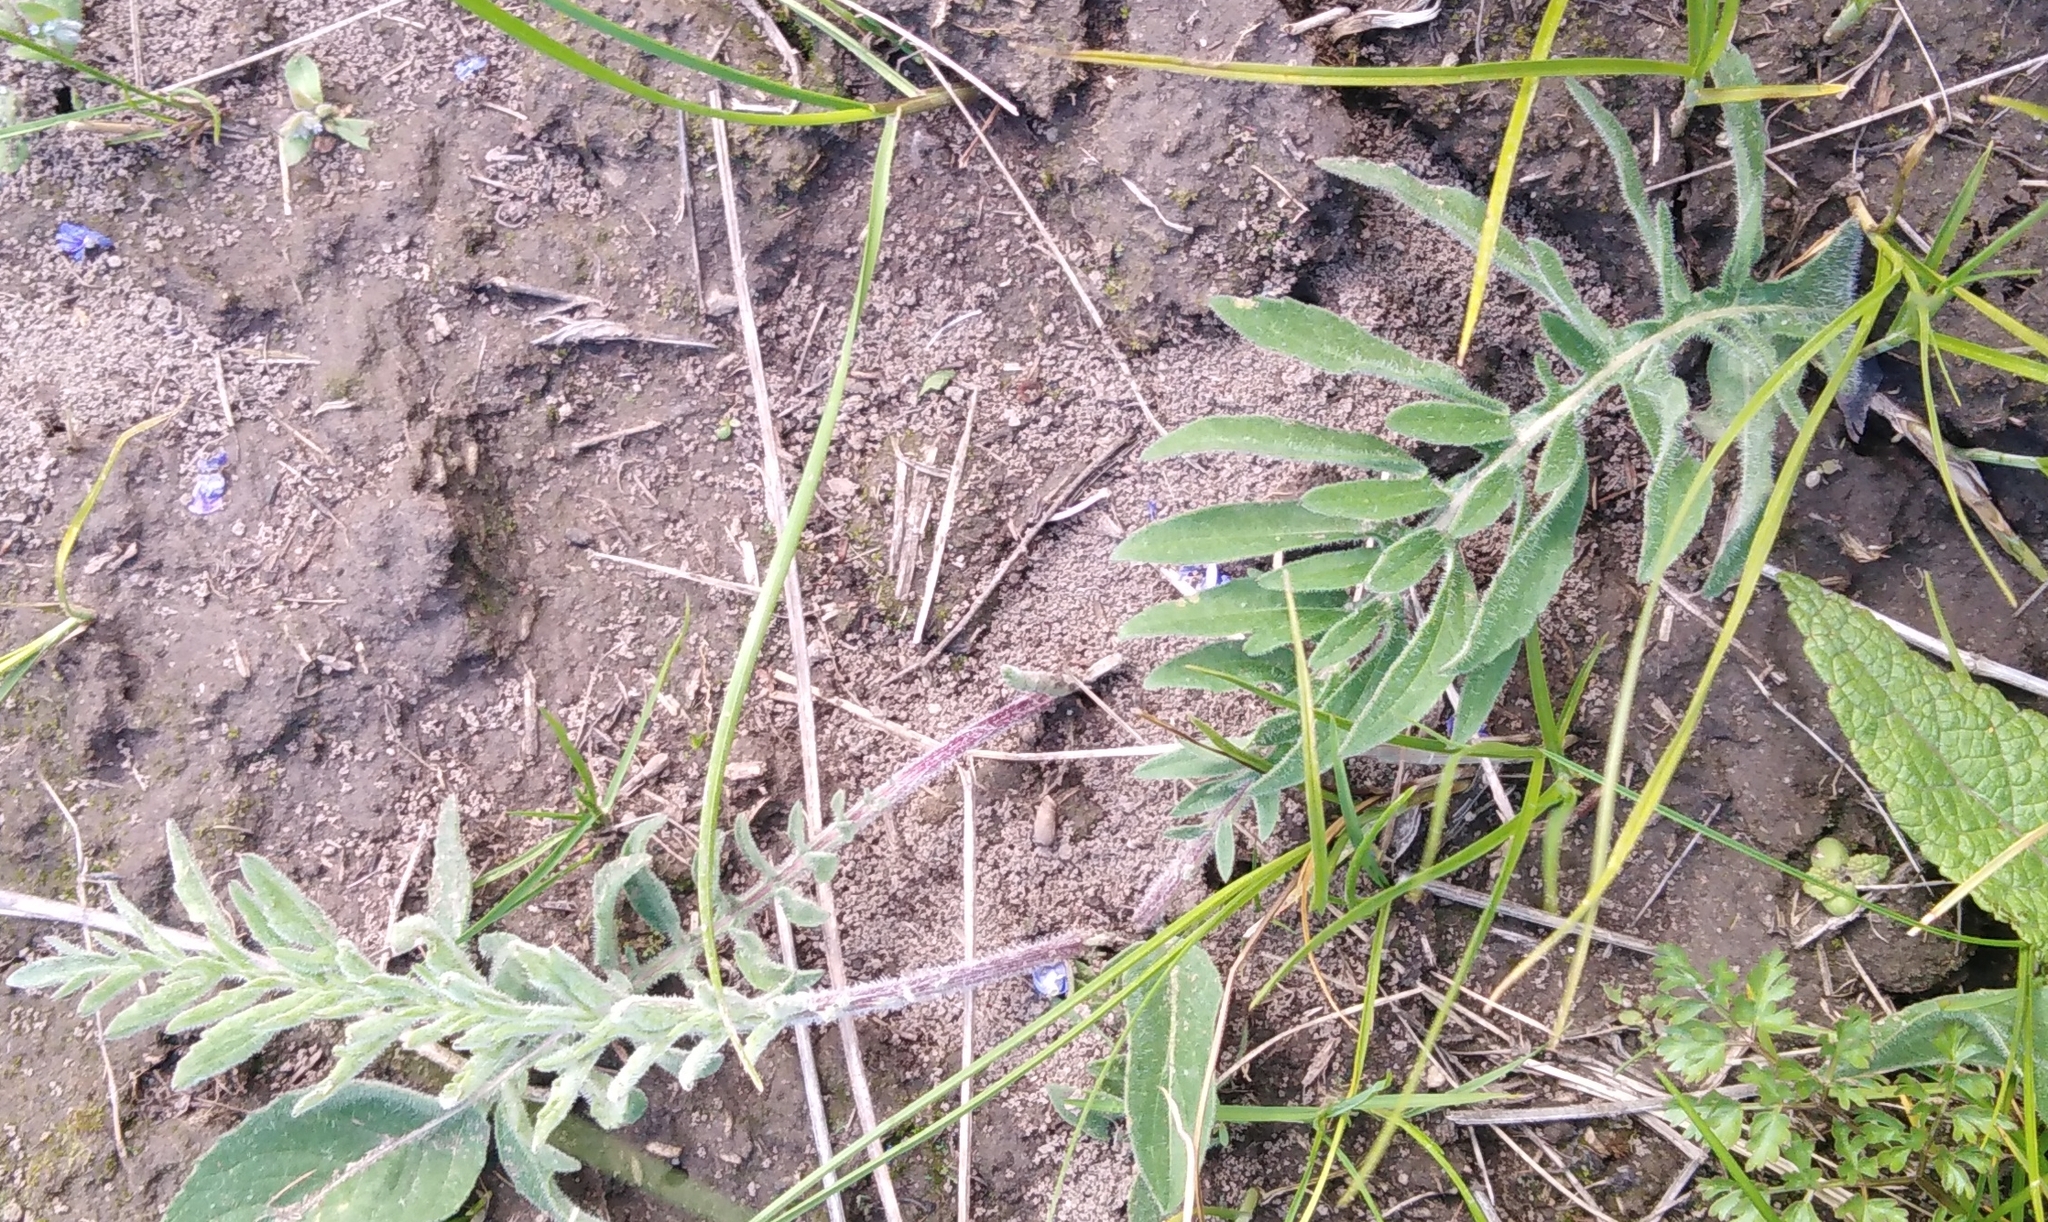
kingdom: Plantae
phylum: Tracheophyta
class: Magnoliopsida
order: Asterales
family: Asteraceae
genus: Centaurea
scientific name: Centaurea scabiosa
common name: Greater knapweed
